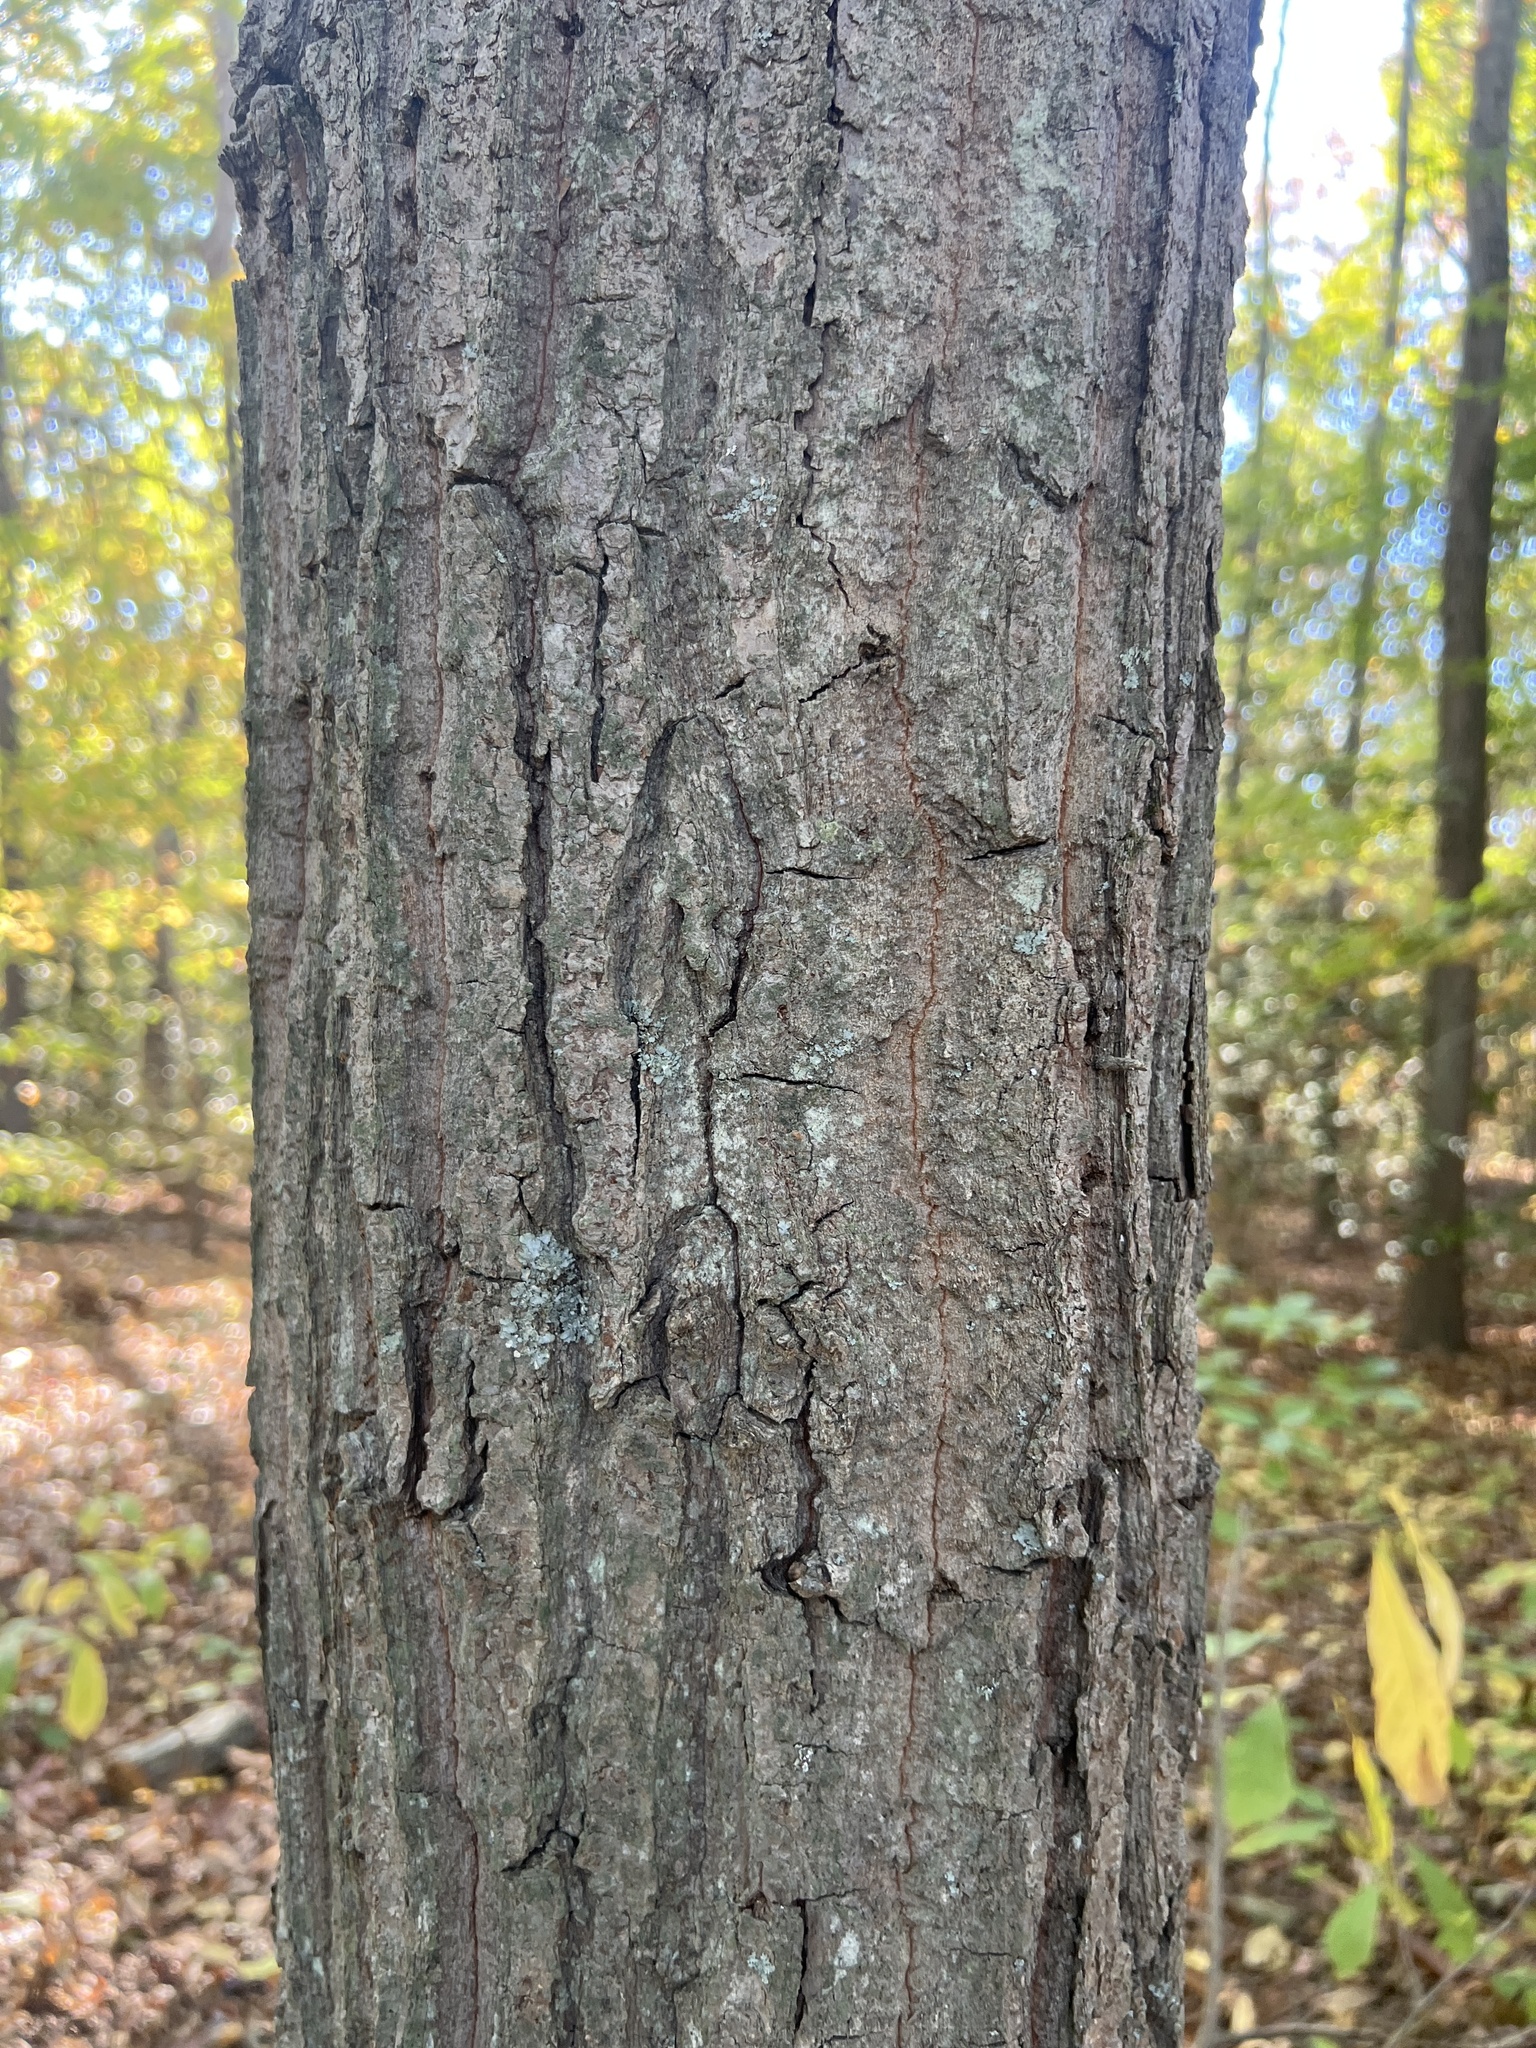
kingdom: Plantae
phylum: Tracheophyta
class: Magnoliopsida
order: Fagales
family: Fagaceae
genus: Quercus
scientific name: Quercus montana
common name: Chestnut oak
